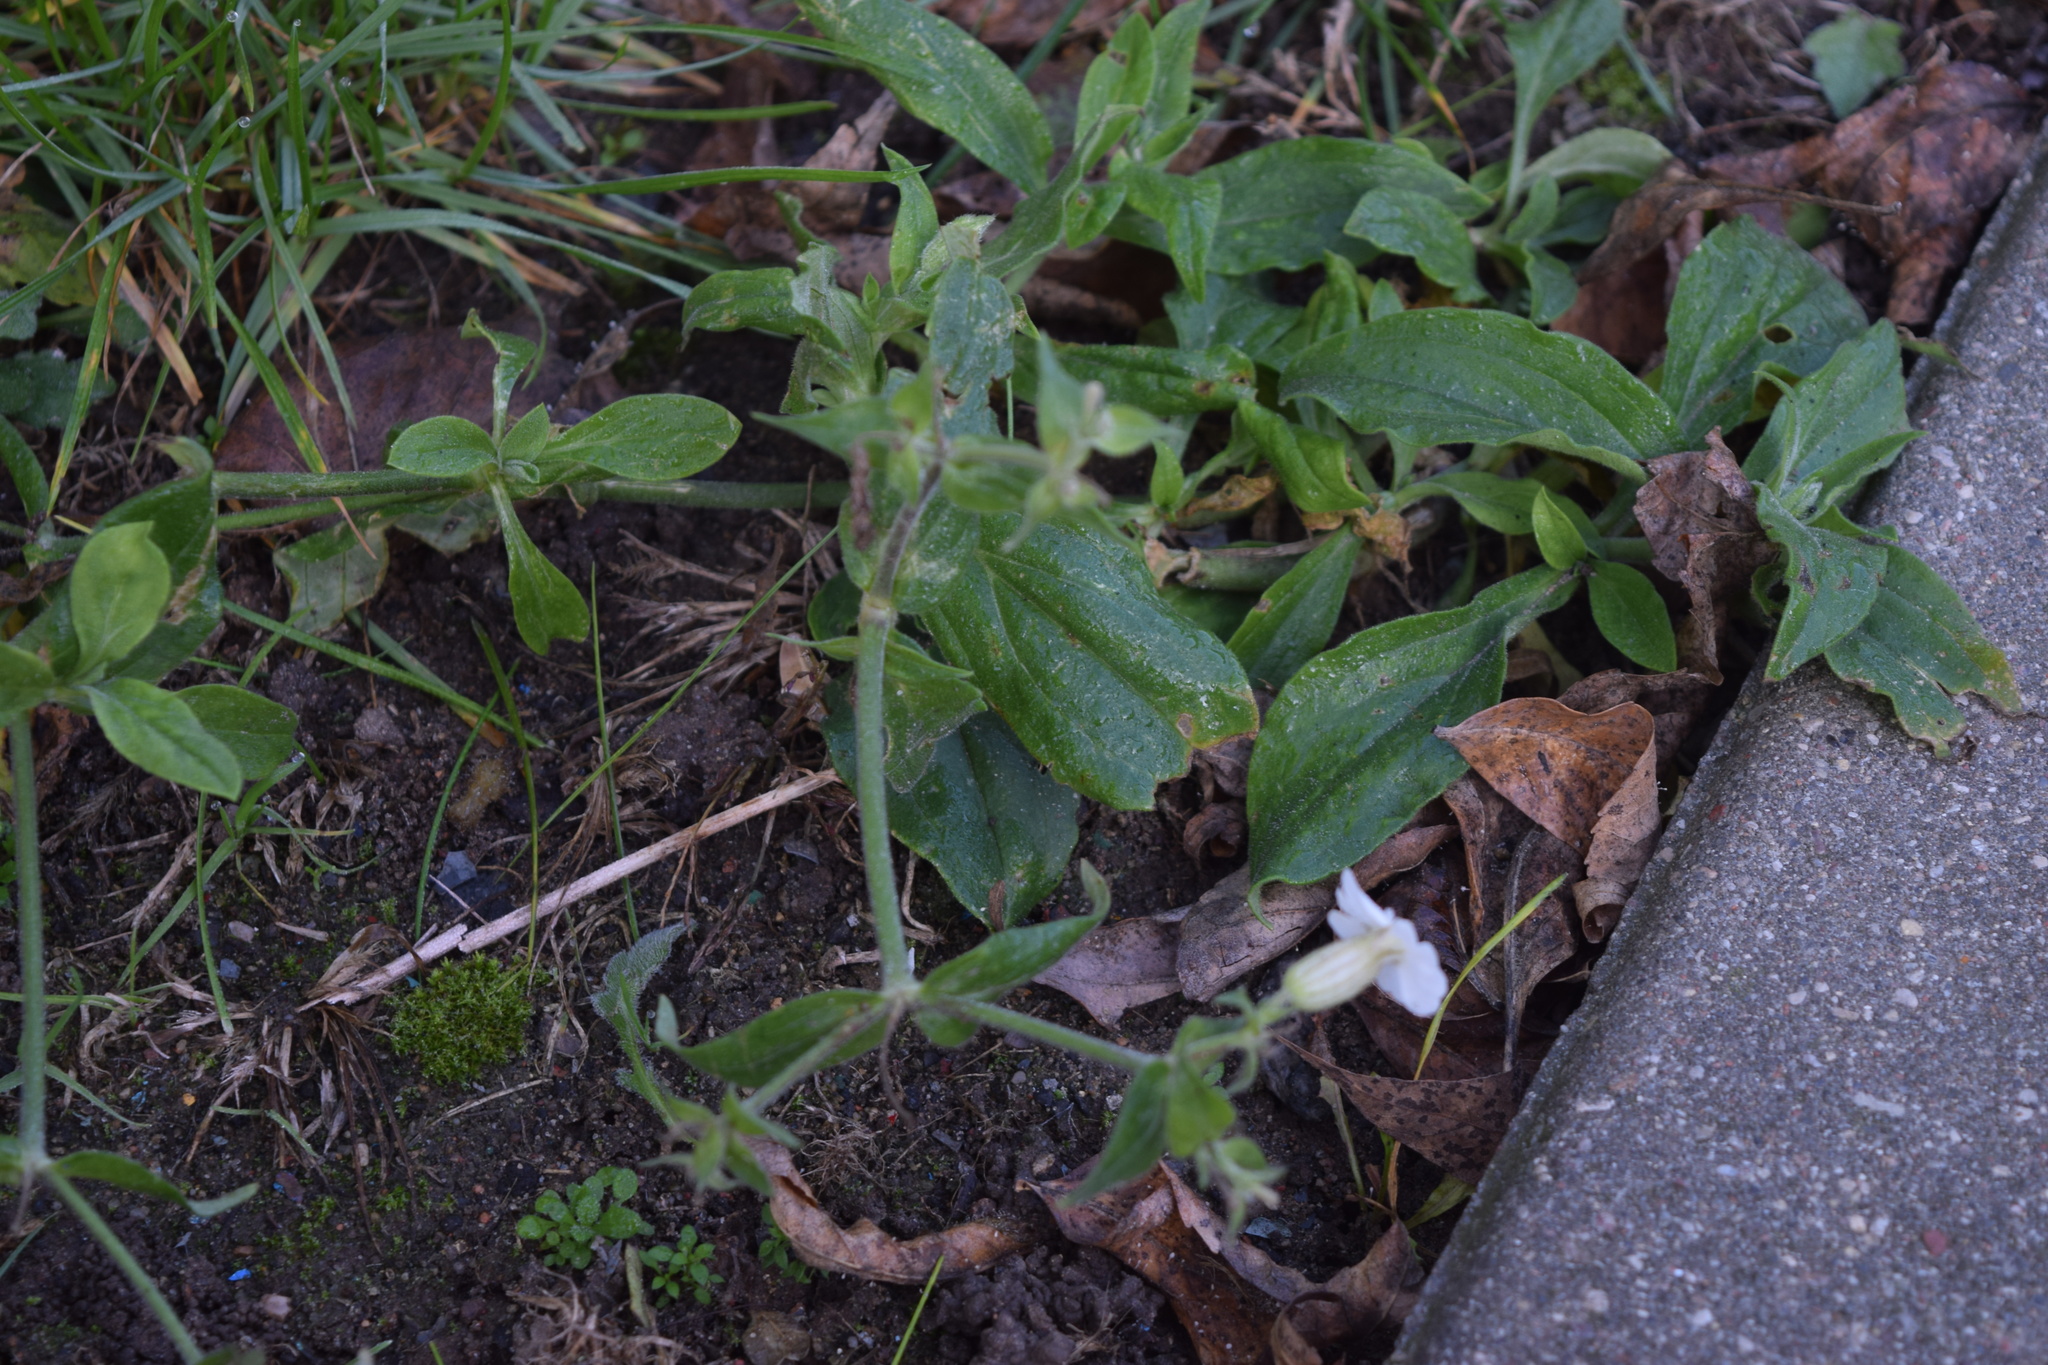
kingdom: Plantae
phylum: Tracheophyta
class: Magnoliopsida
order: Caryophyllales
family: Caryophyllaceae
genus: Silene
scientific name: Silene latifolia
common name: White campion
